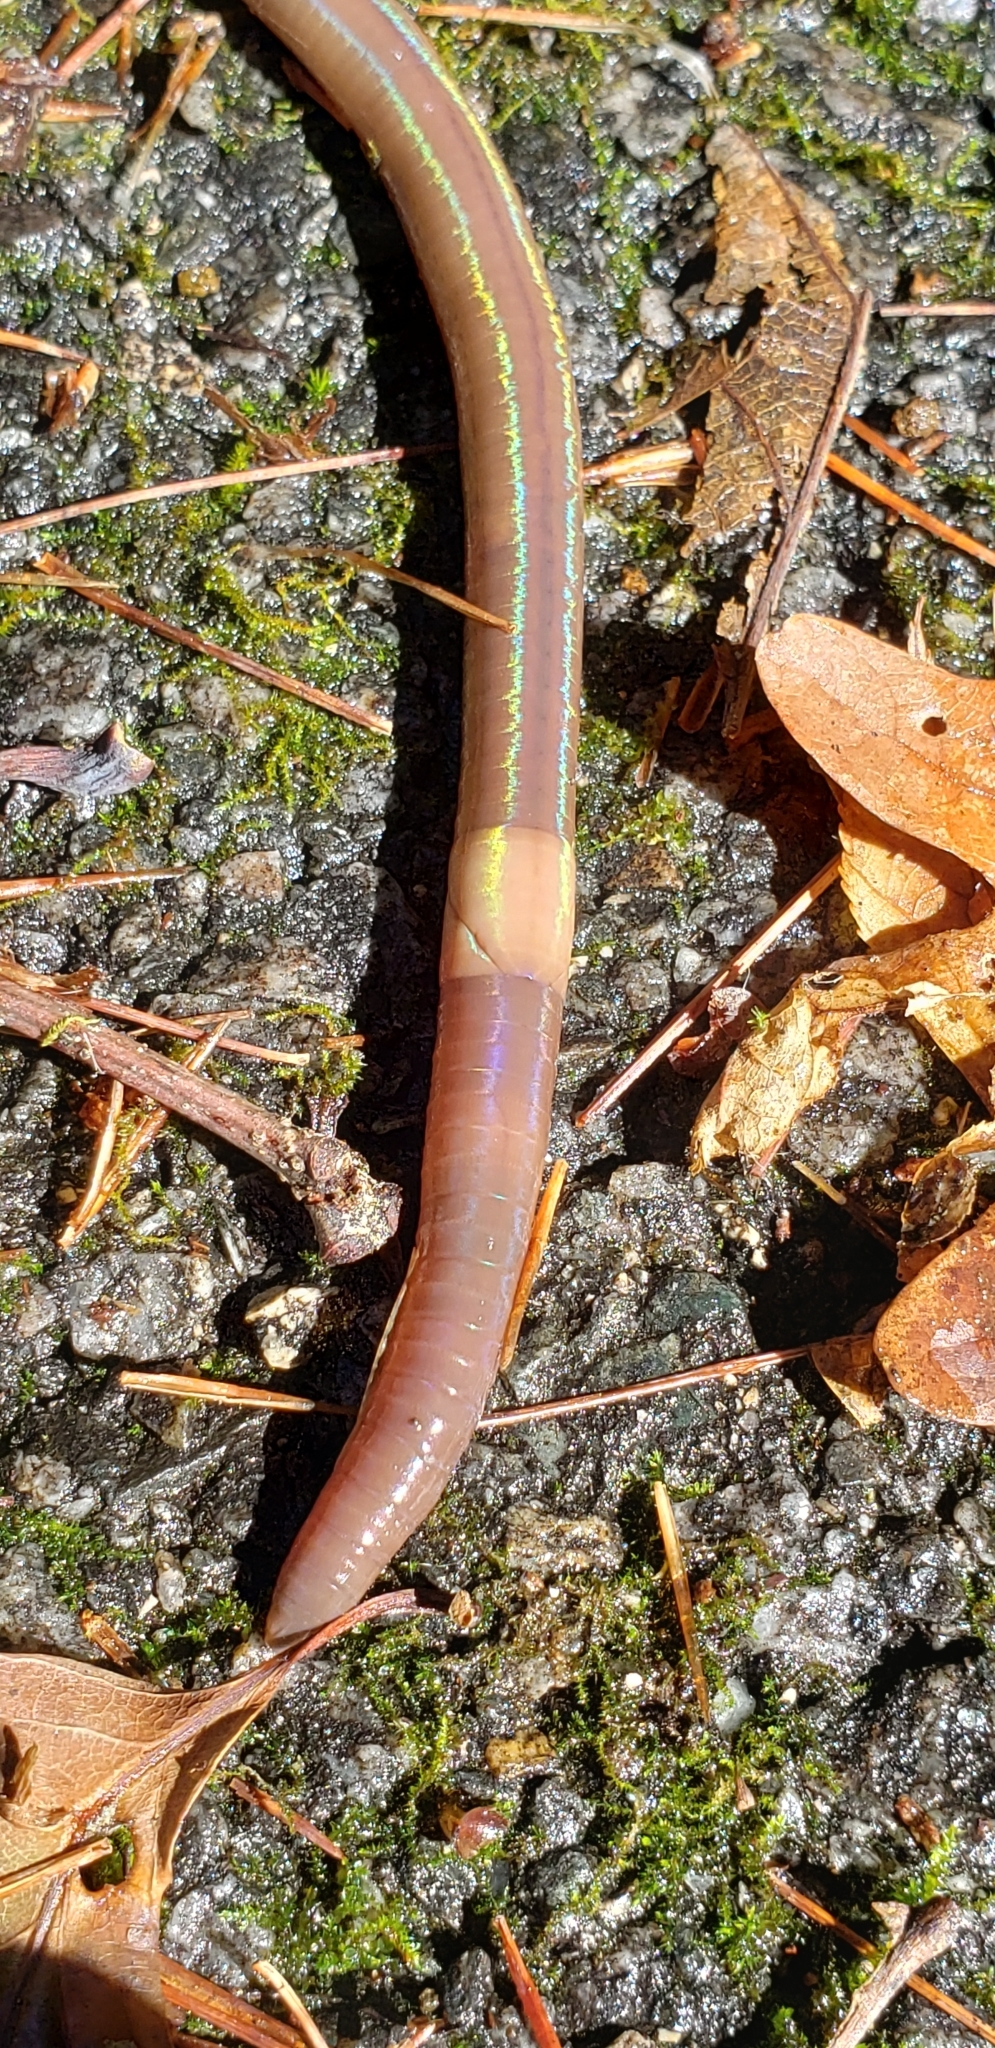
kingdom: Animalia
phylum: Annelida
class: Clitellata
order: Crassiclitellata
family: Lumbricidae
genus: Lumbricus
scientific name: Lumbricus terrestris
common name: Common earthworm
